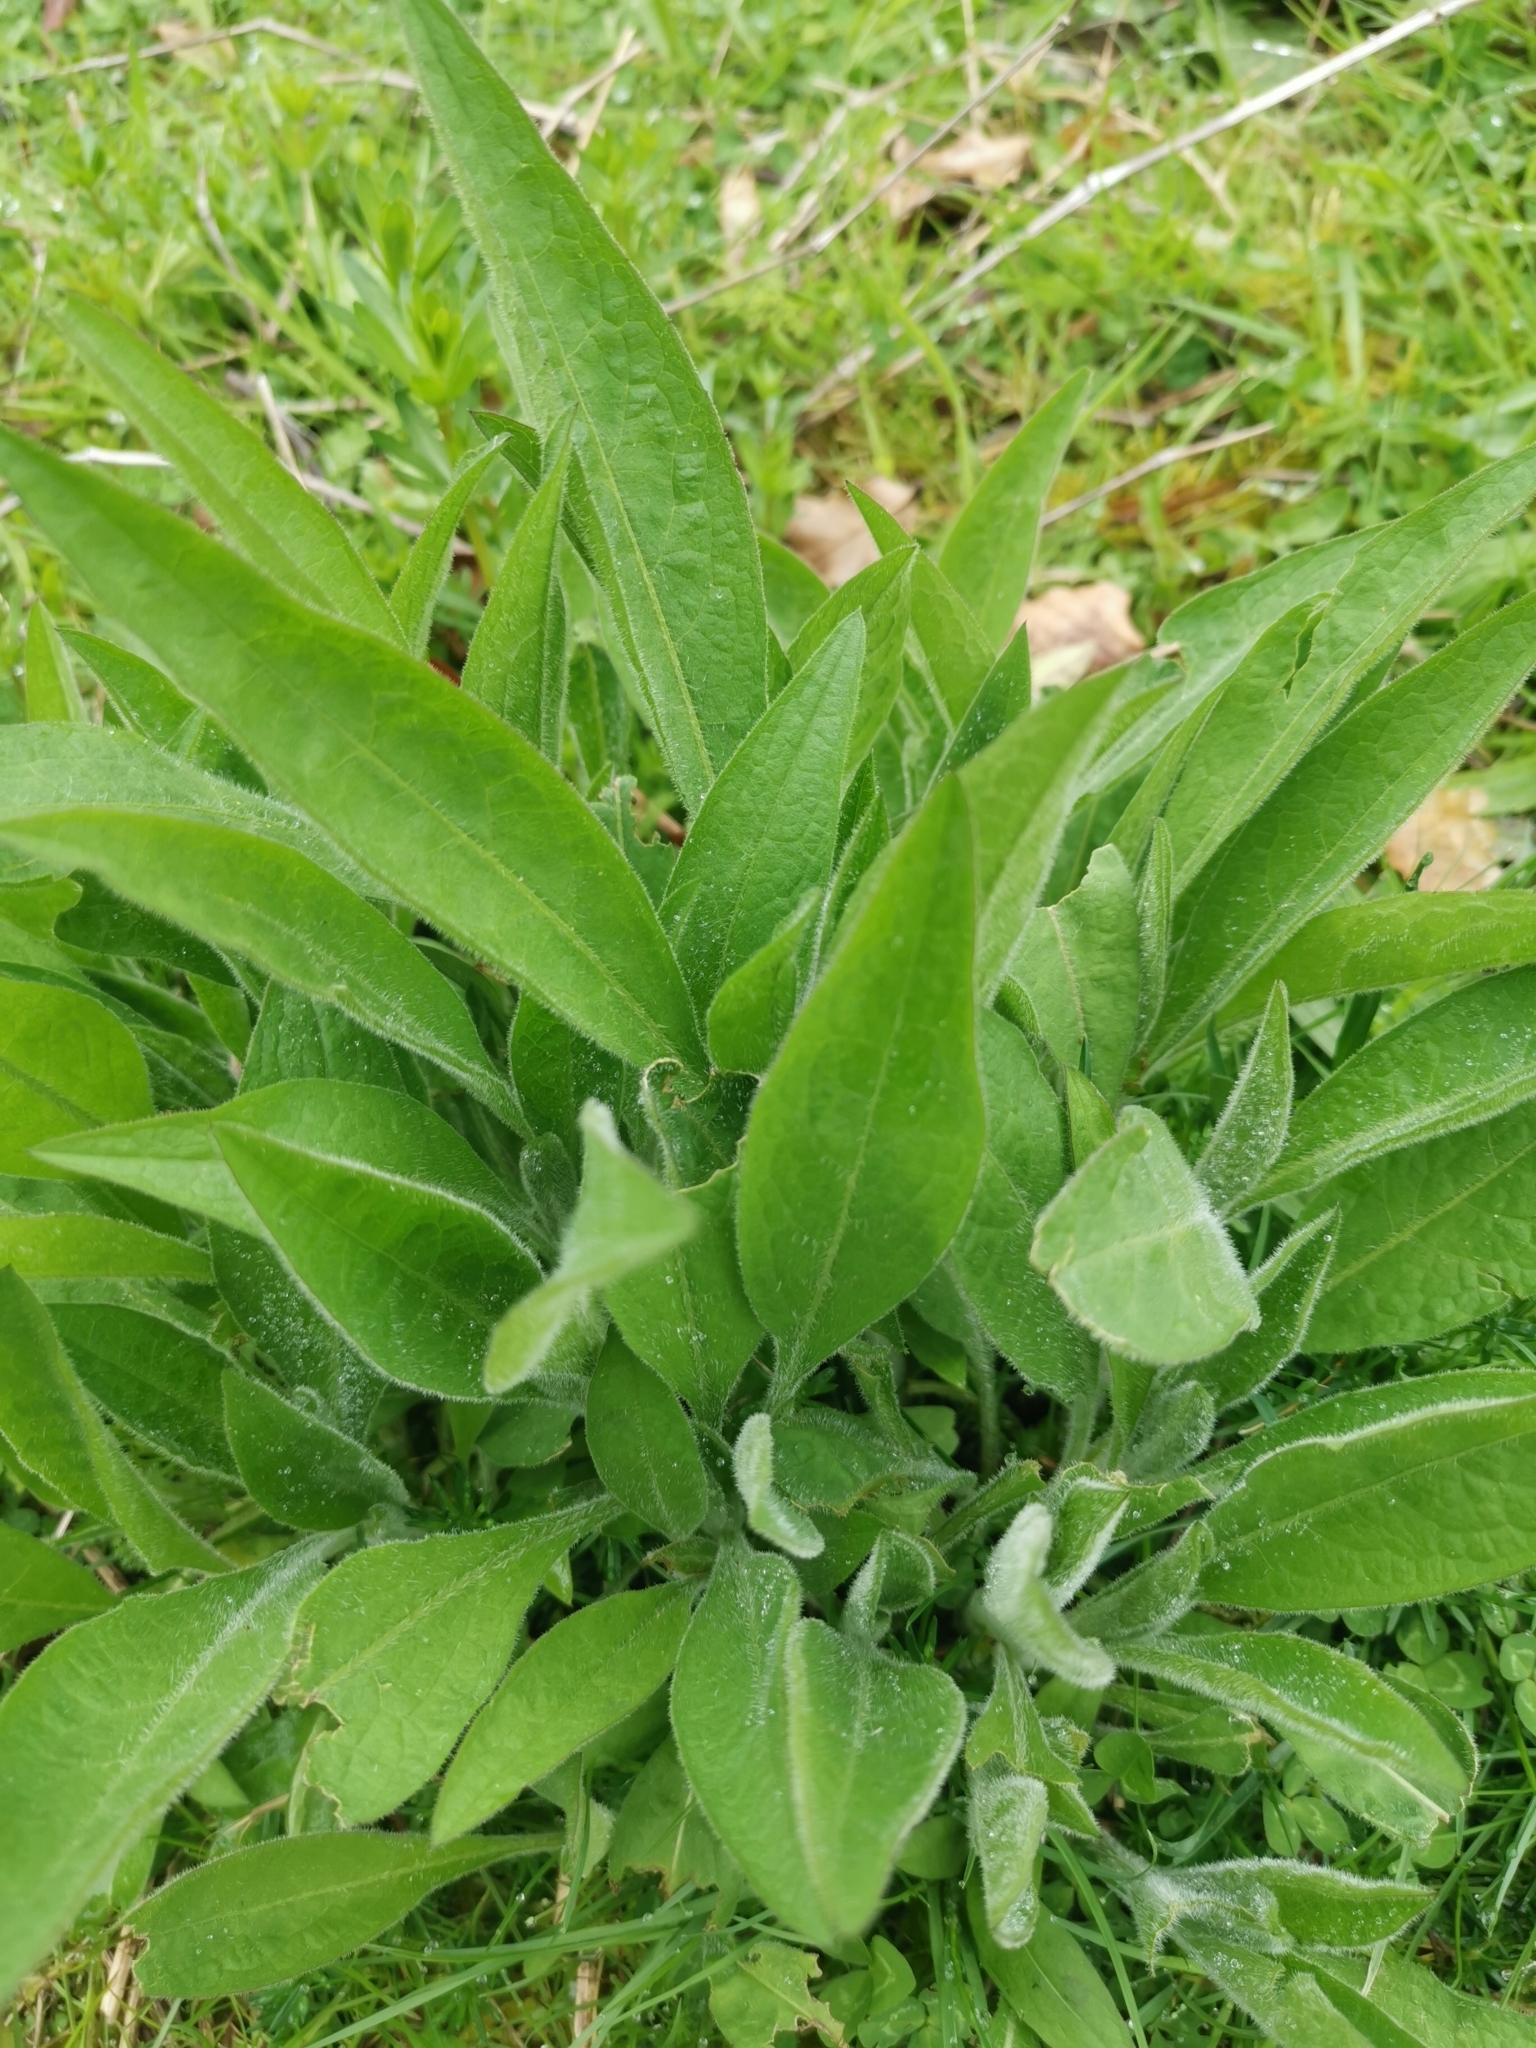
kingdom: Plantae
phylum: Tracheophyta
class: Magnoliopsida
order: Asterales
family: Asteraceae
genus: Centaurea
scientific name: Centaurea nigra
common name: Lesser knapweed
